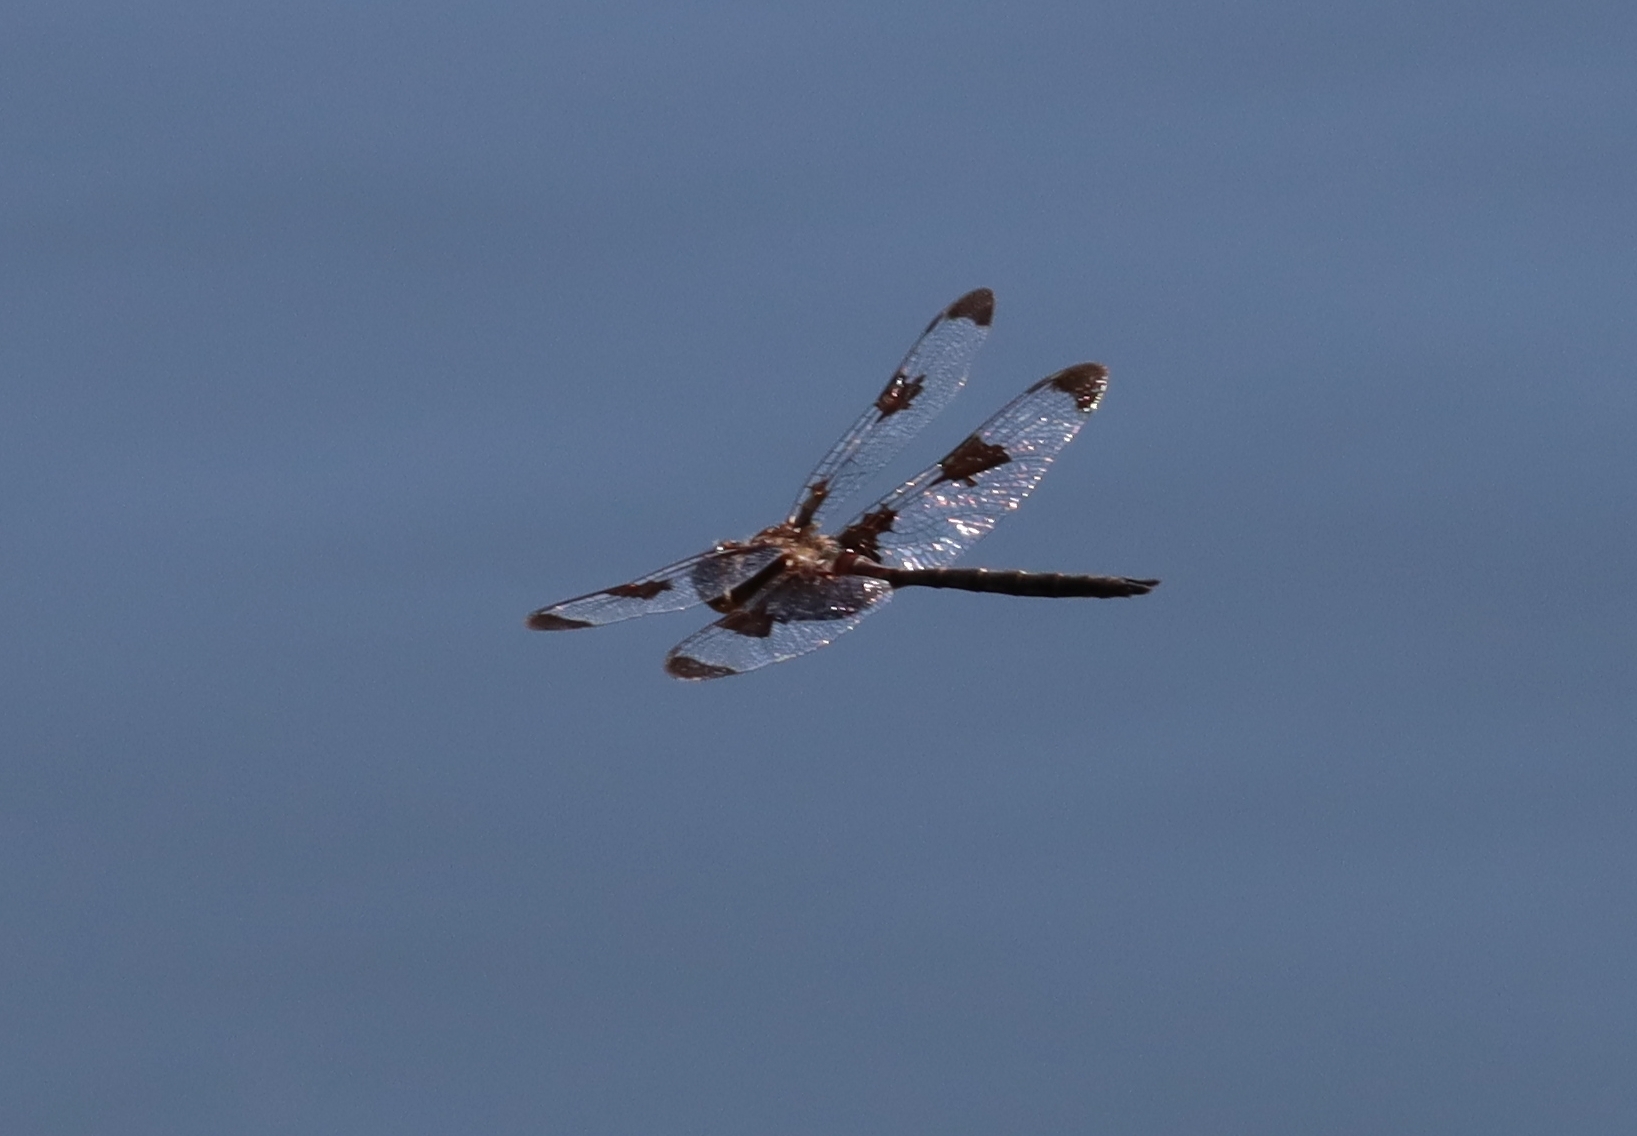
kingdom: Animalia
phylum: Arthropoda
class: Insecta
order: Odonata
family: Corduliidae
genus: Epitheca
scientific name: Epitheca princeps
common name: Prince baskettail
